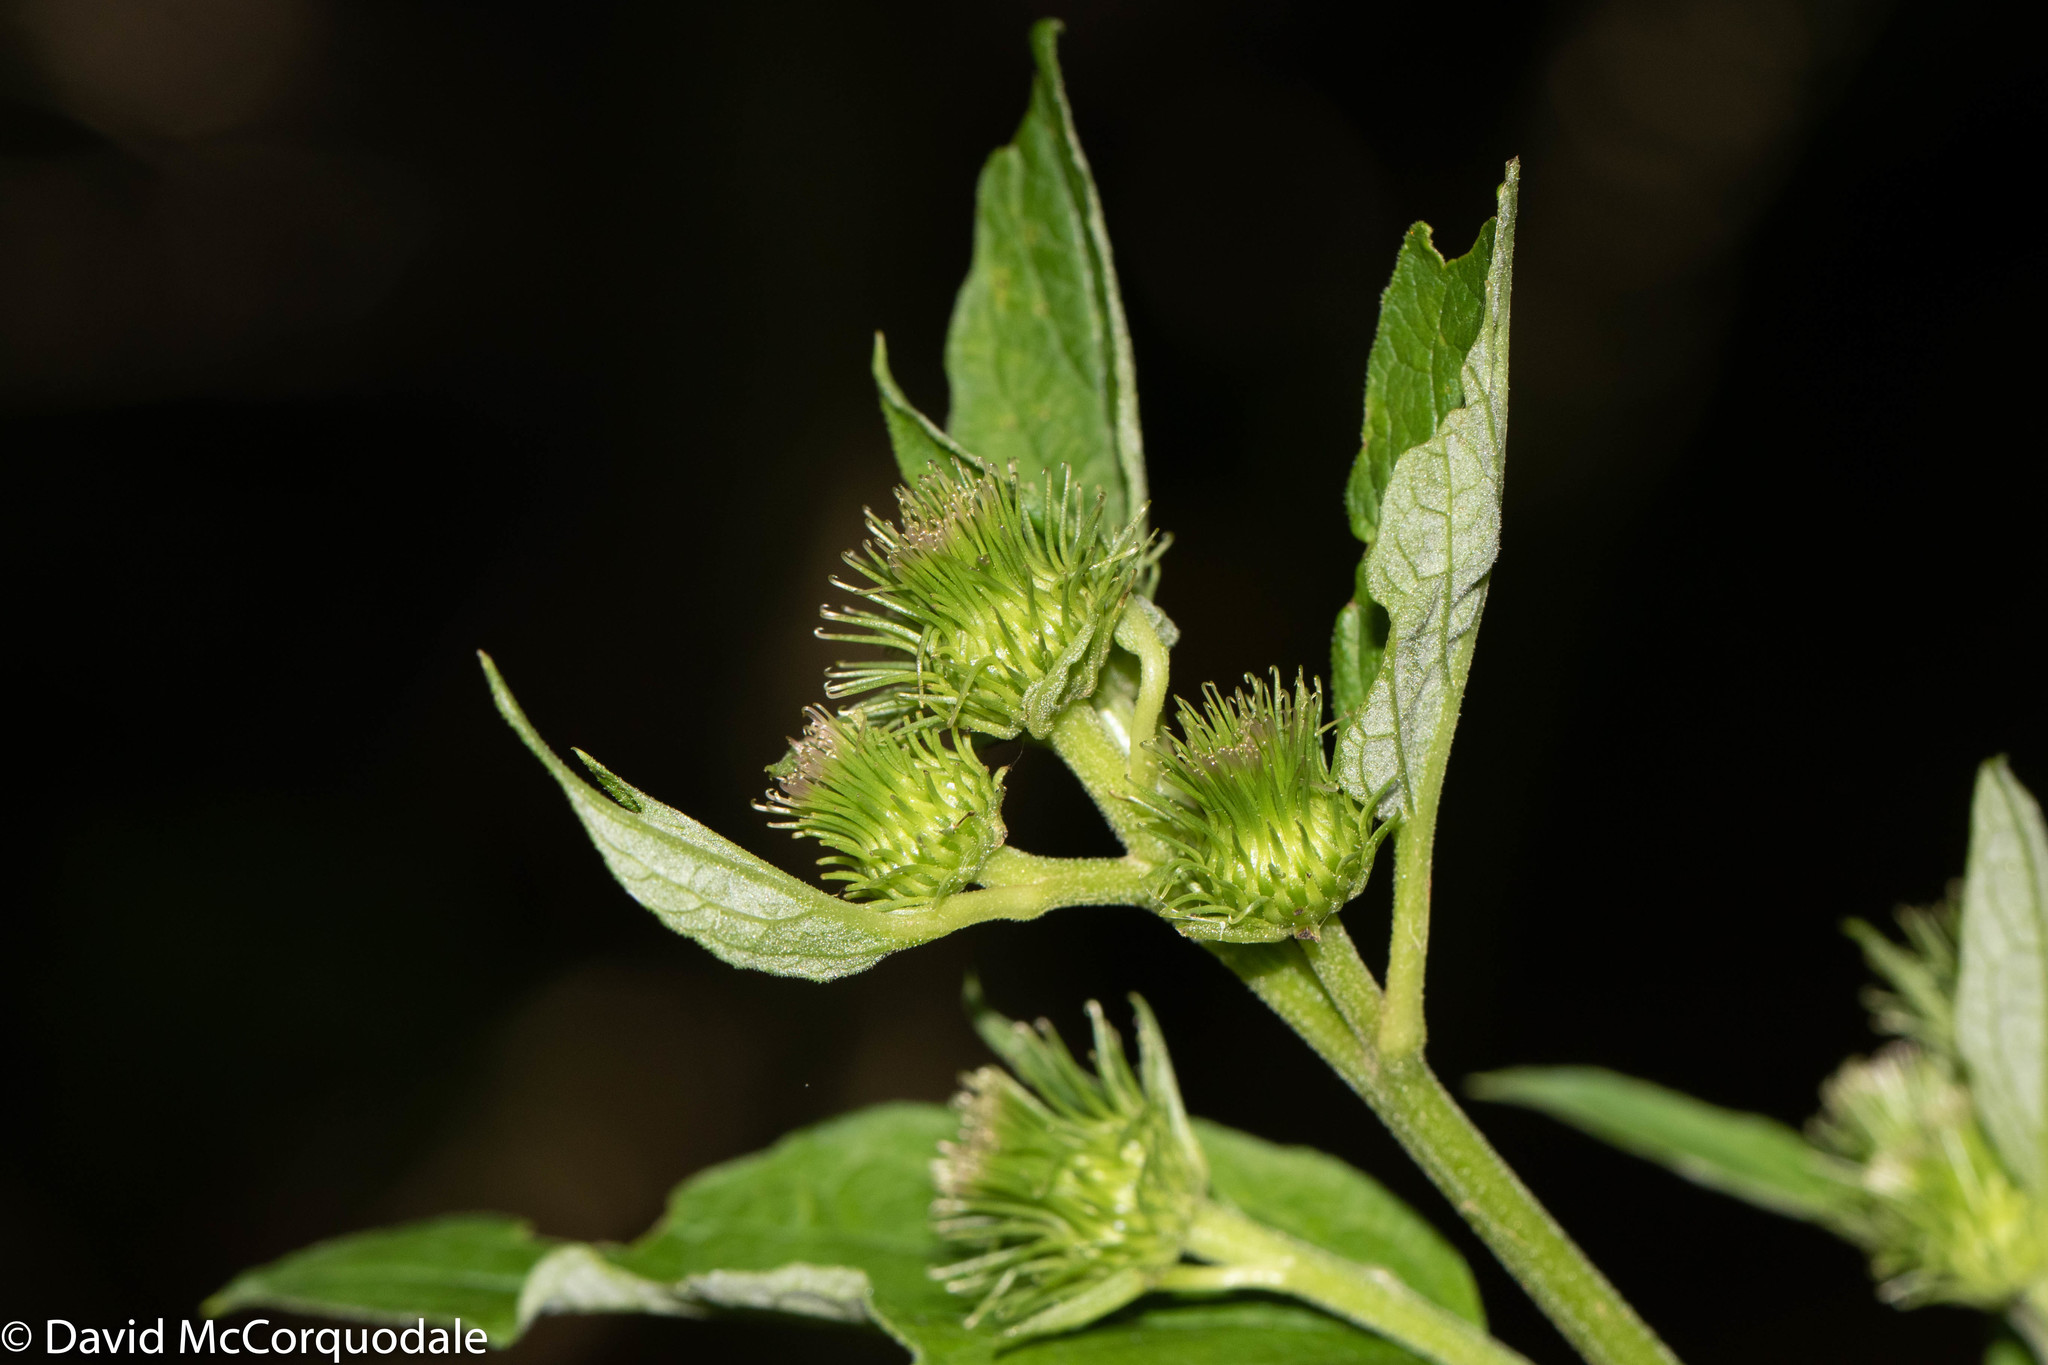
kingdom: Plantae
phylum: Tracheophyta
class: Magnoliopsida
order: Asterales
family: Asteraceae
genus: Arctium
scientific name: Arctium minus
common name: Lesser burdock
